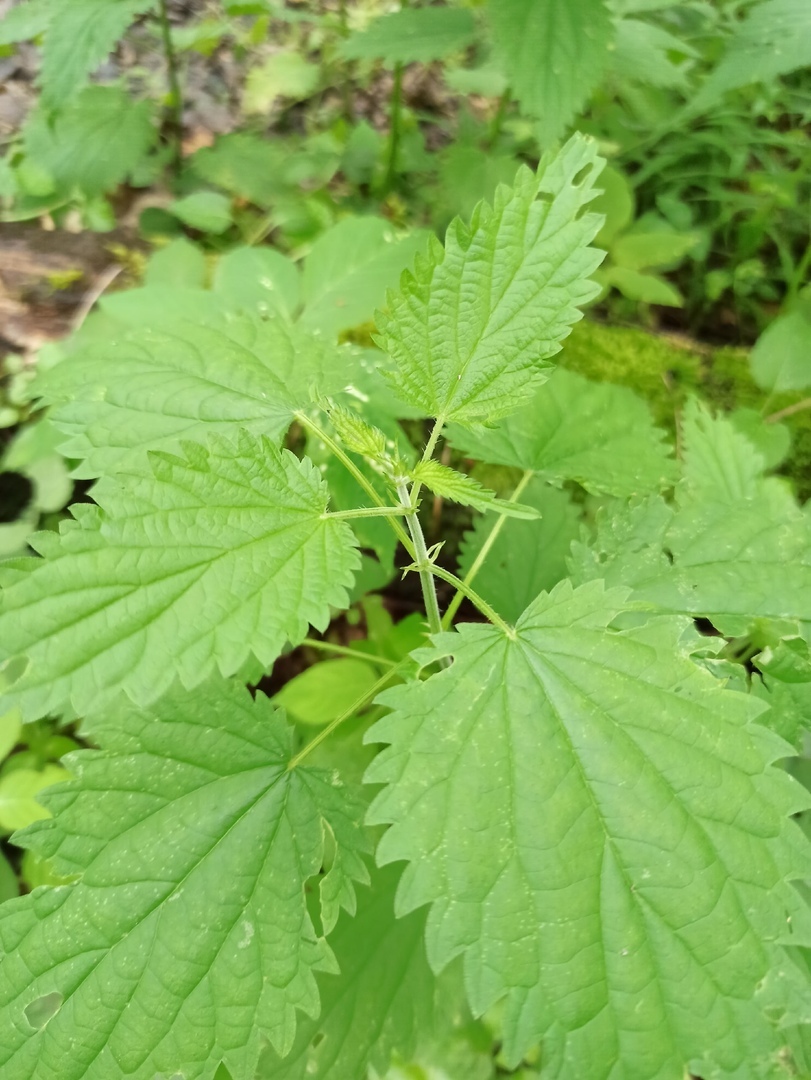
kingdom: Plantae
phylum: Tracheophyta
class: Magnoliopsida
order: Rosales
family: Urticaceae
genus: Urtica
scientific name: Urtica dioica
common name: Common nettle
